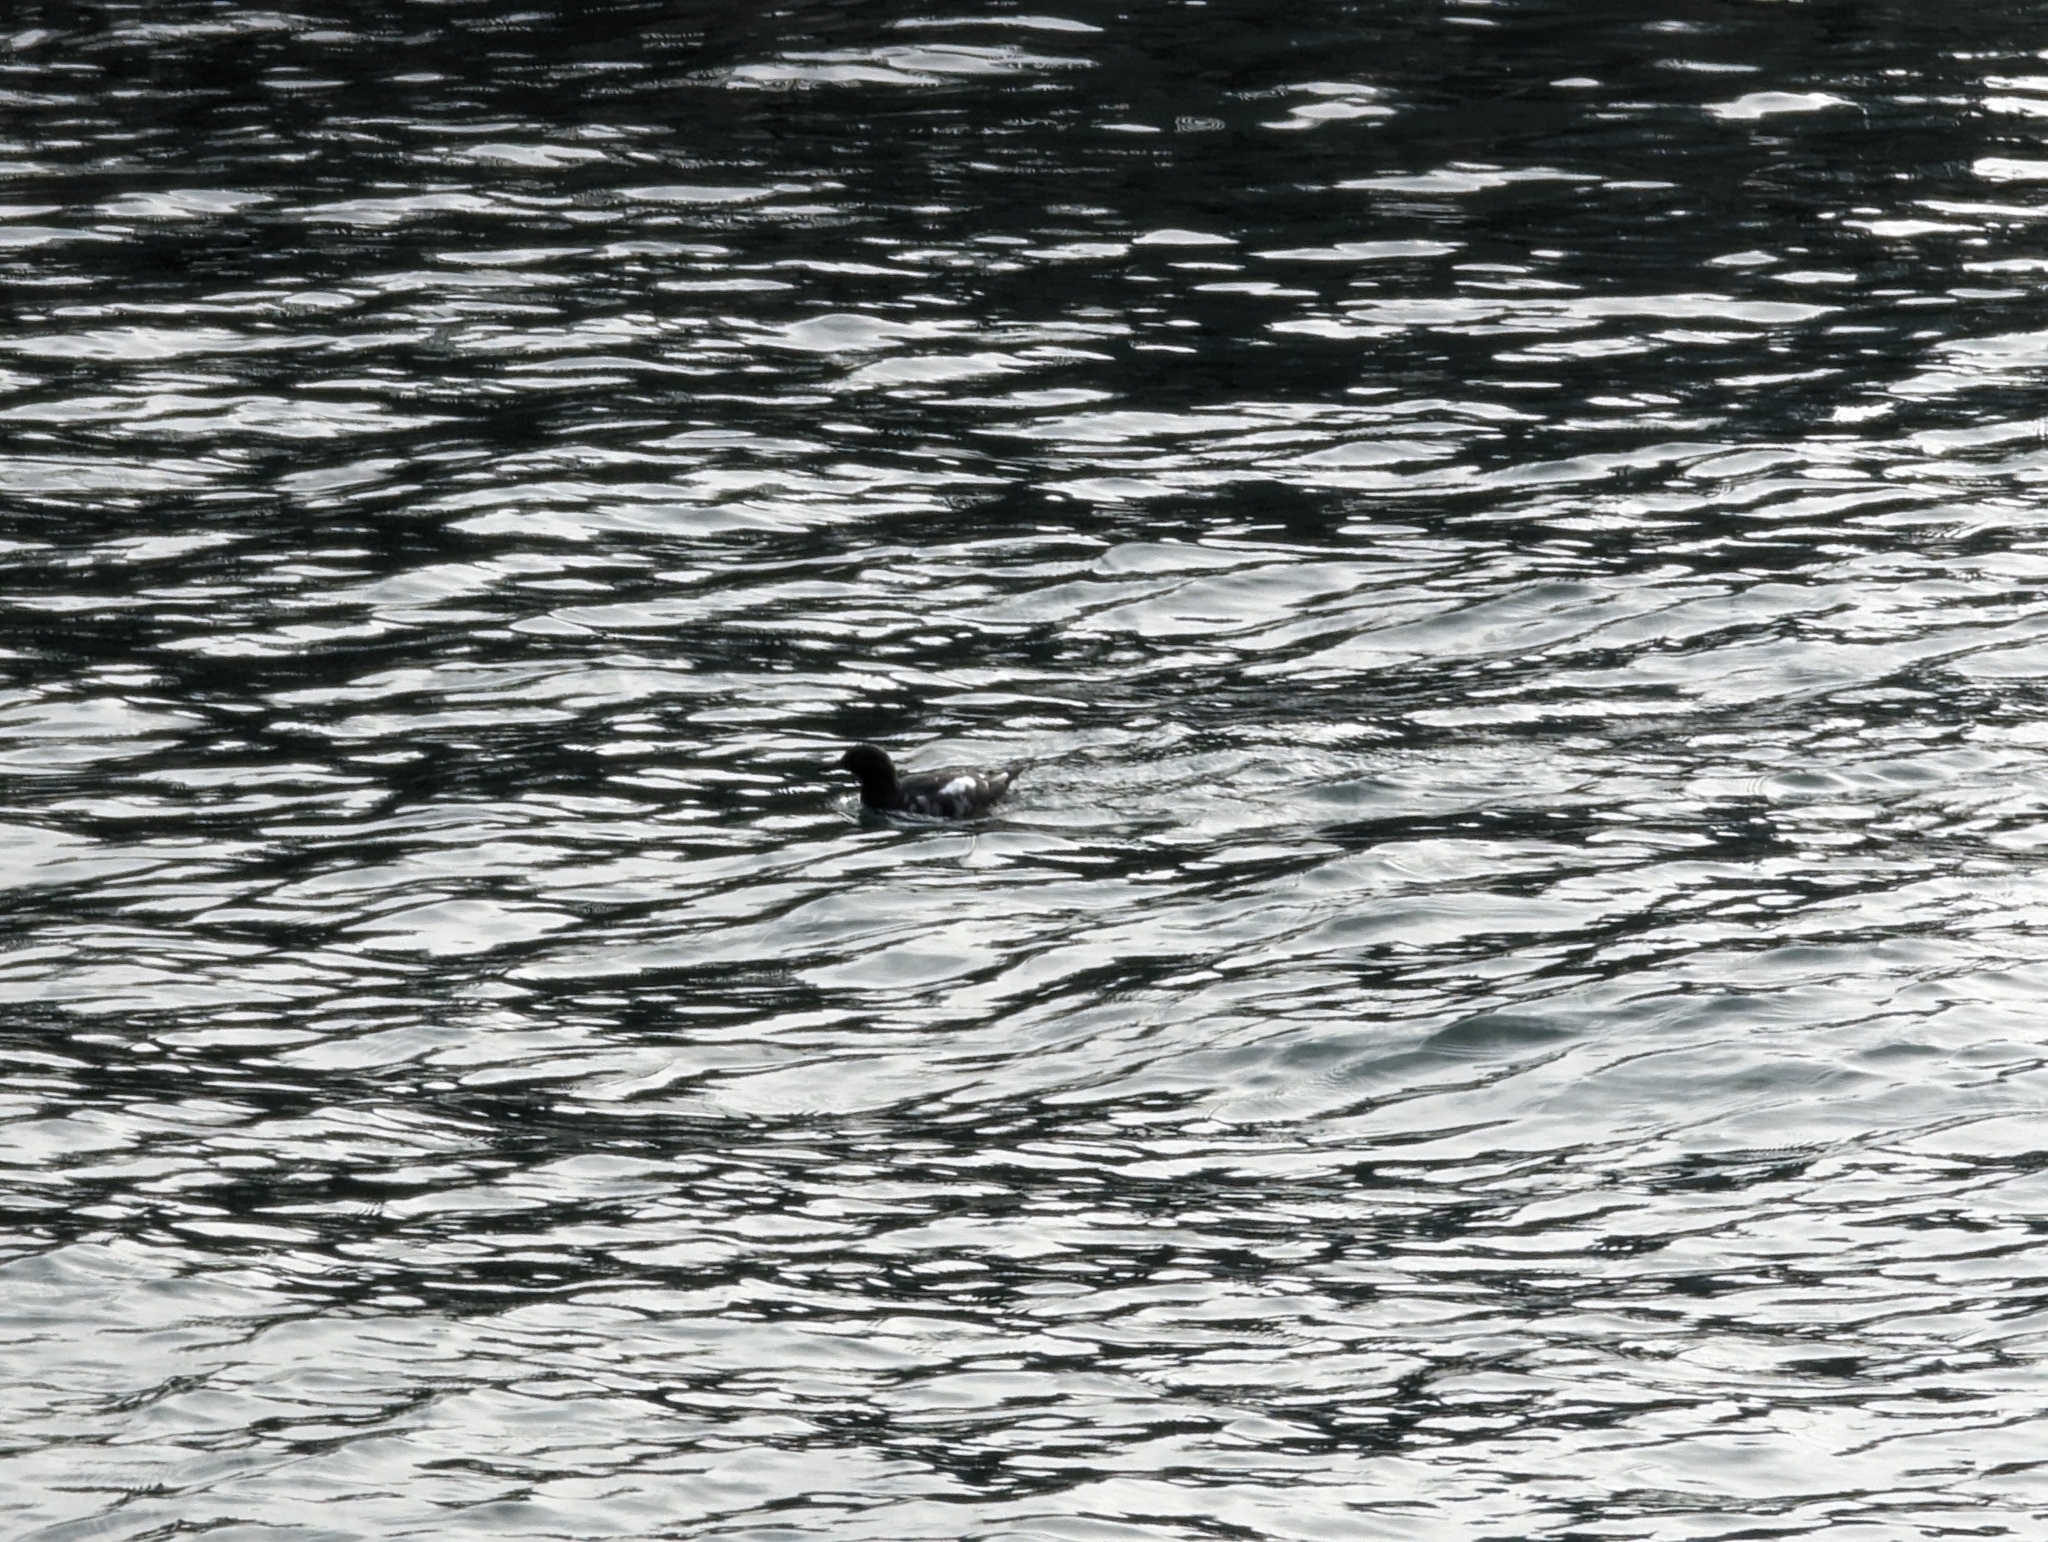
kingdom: Animalia
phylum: Chordata
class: Aves
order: Charadriiformes
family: Alcidae
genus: Cepphus
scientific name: Cepphus columba
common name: Pigeon guillemot
